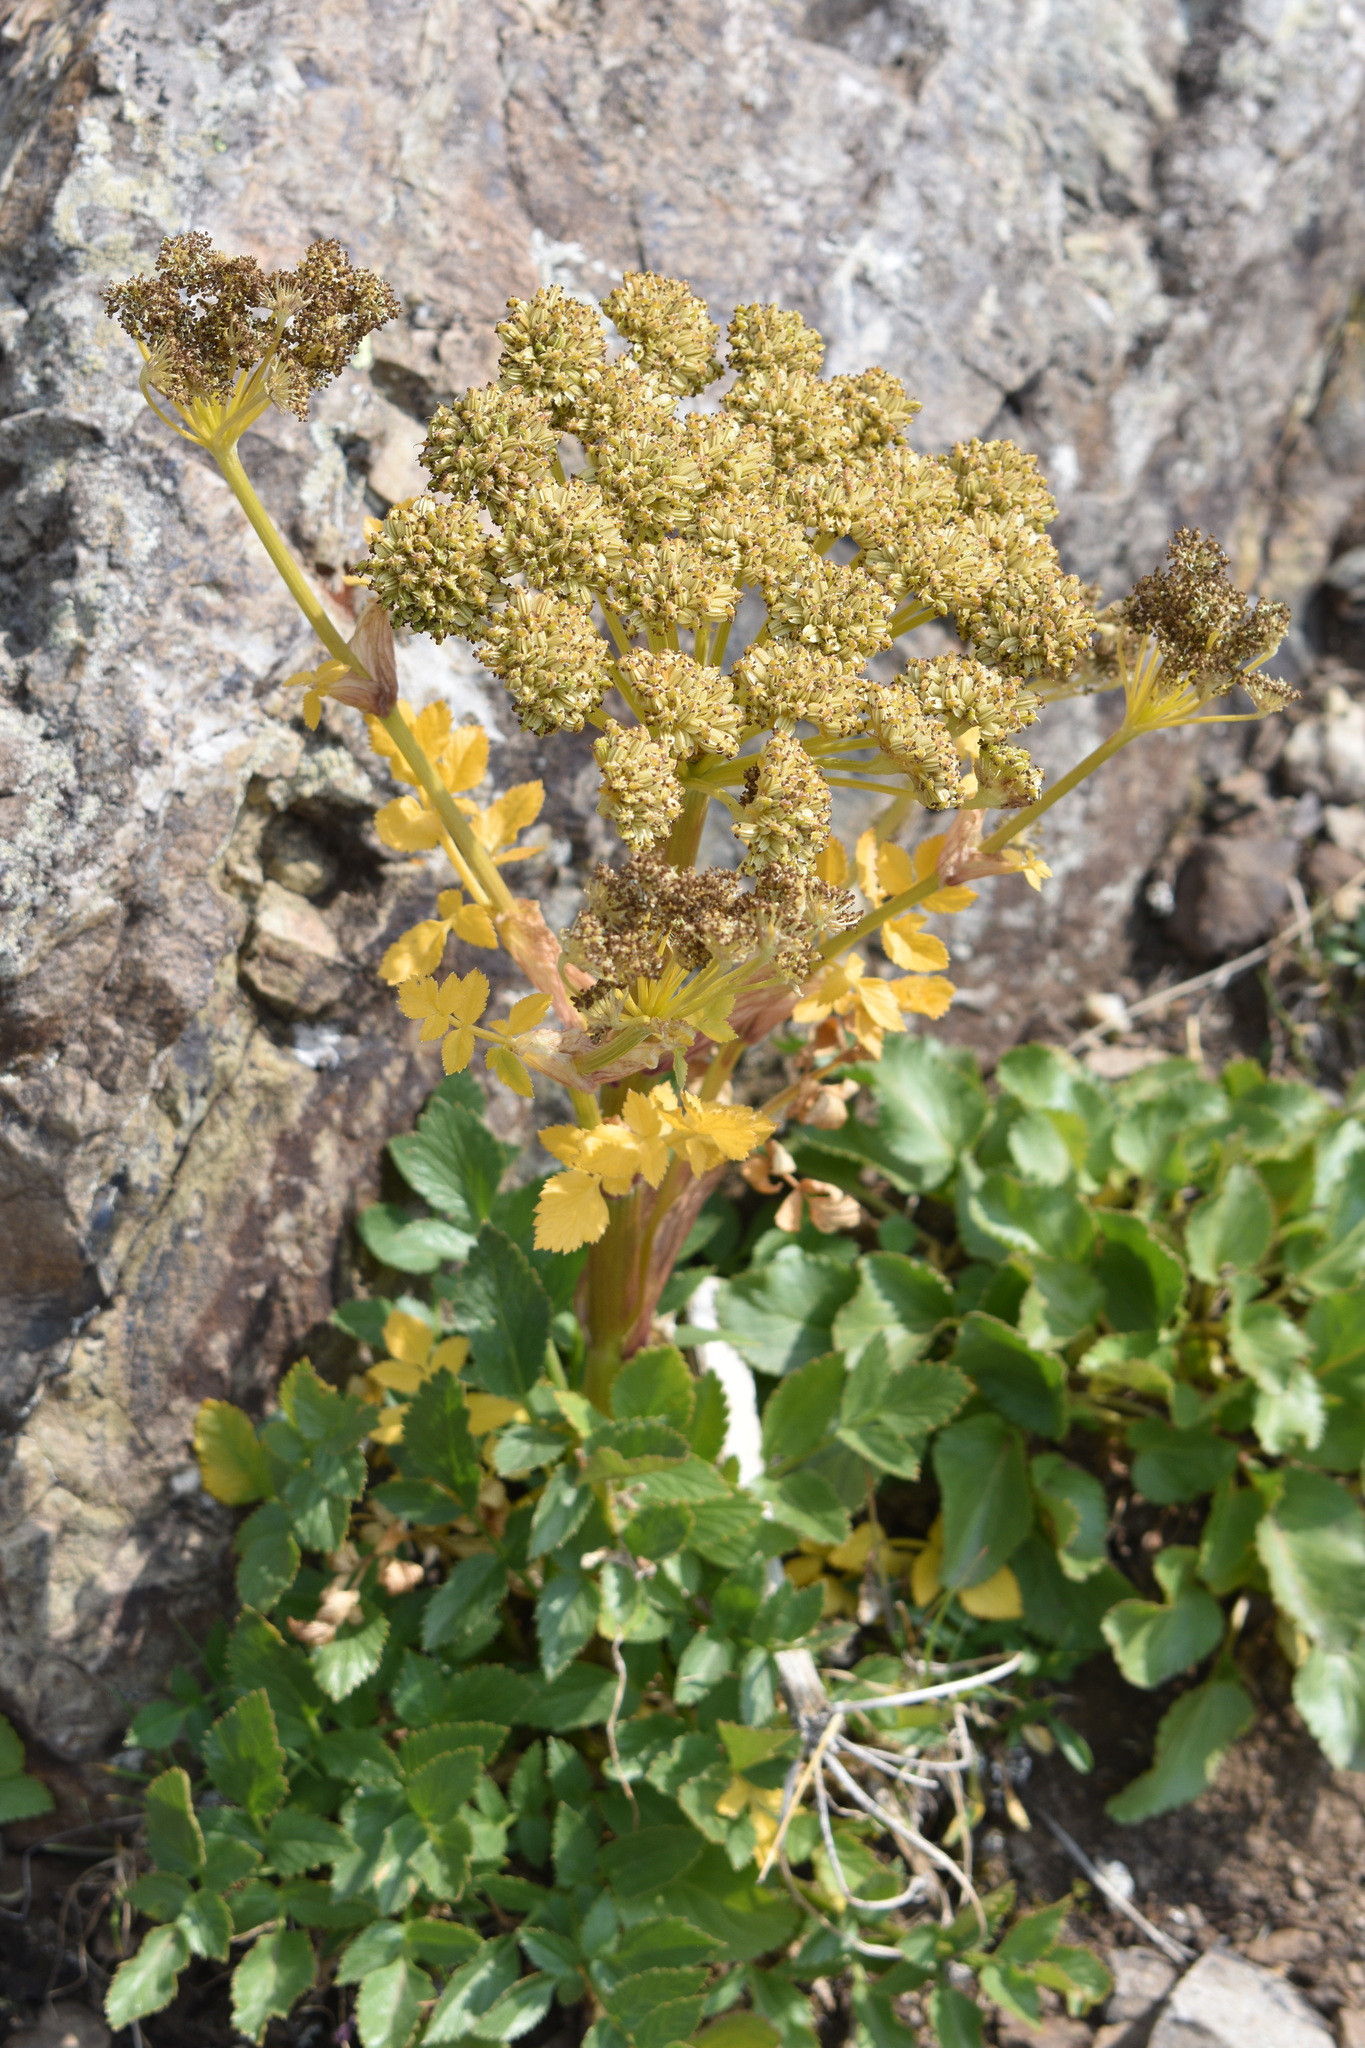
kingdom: Plantae
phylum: Tracheophyta
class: Magnoliopsida
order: Apiales
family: Apiaceae
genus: Angelica
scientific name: Angelica grayi
